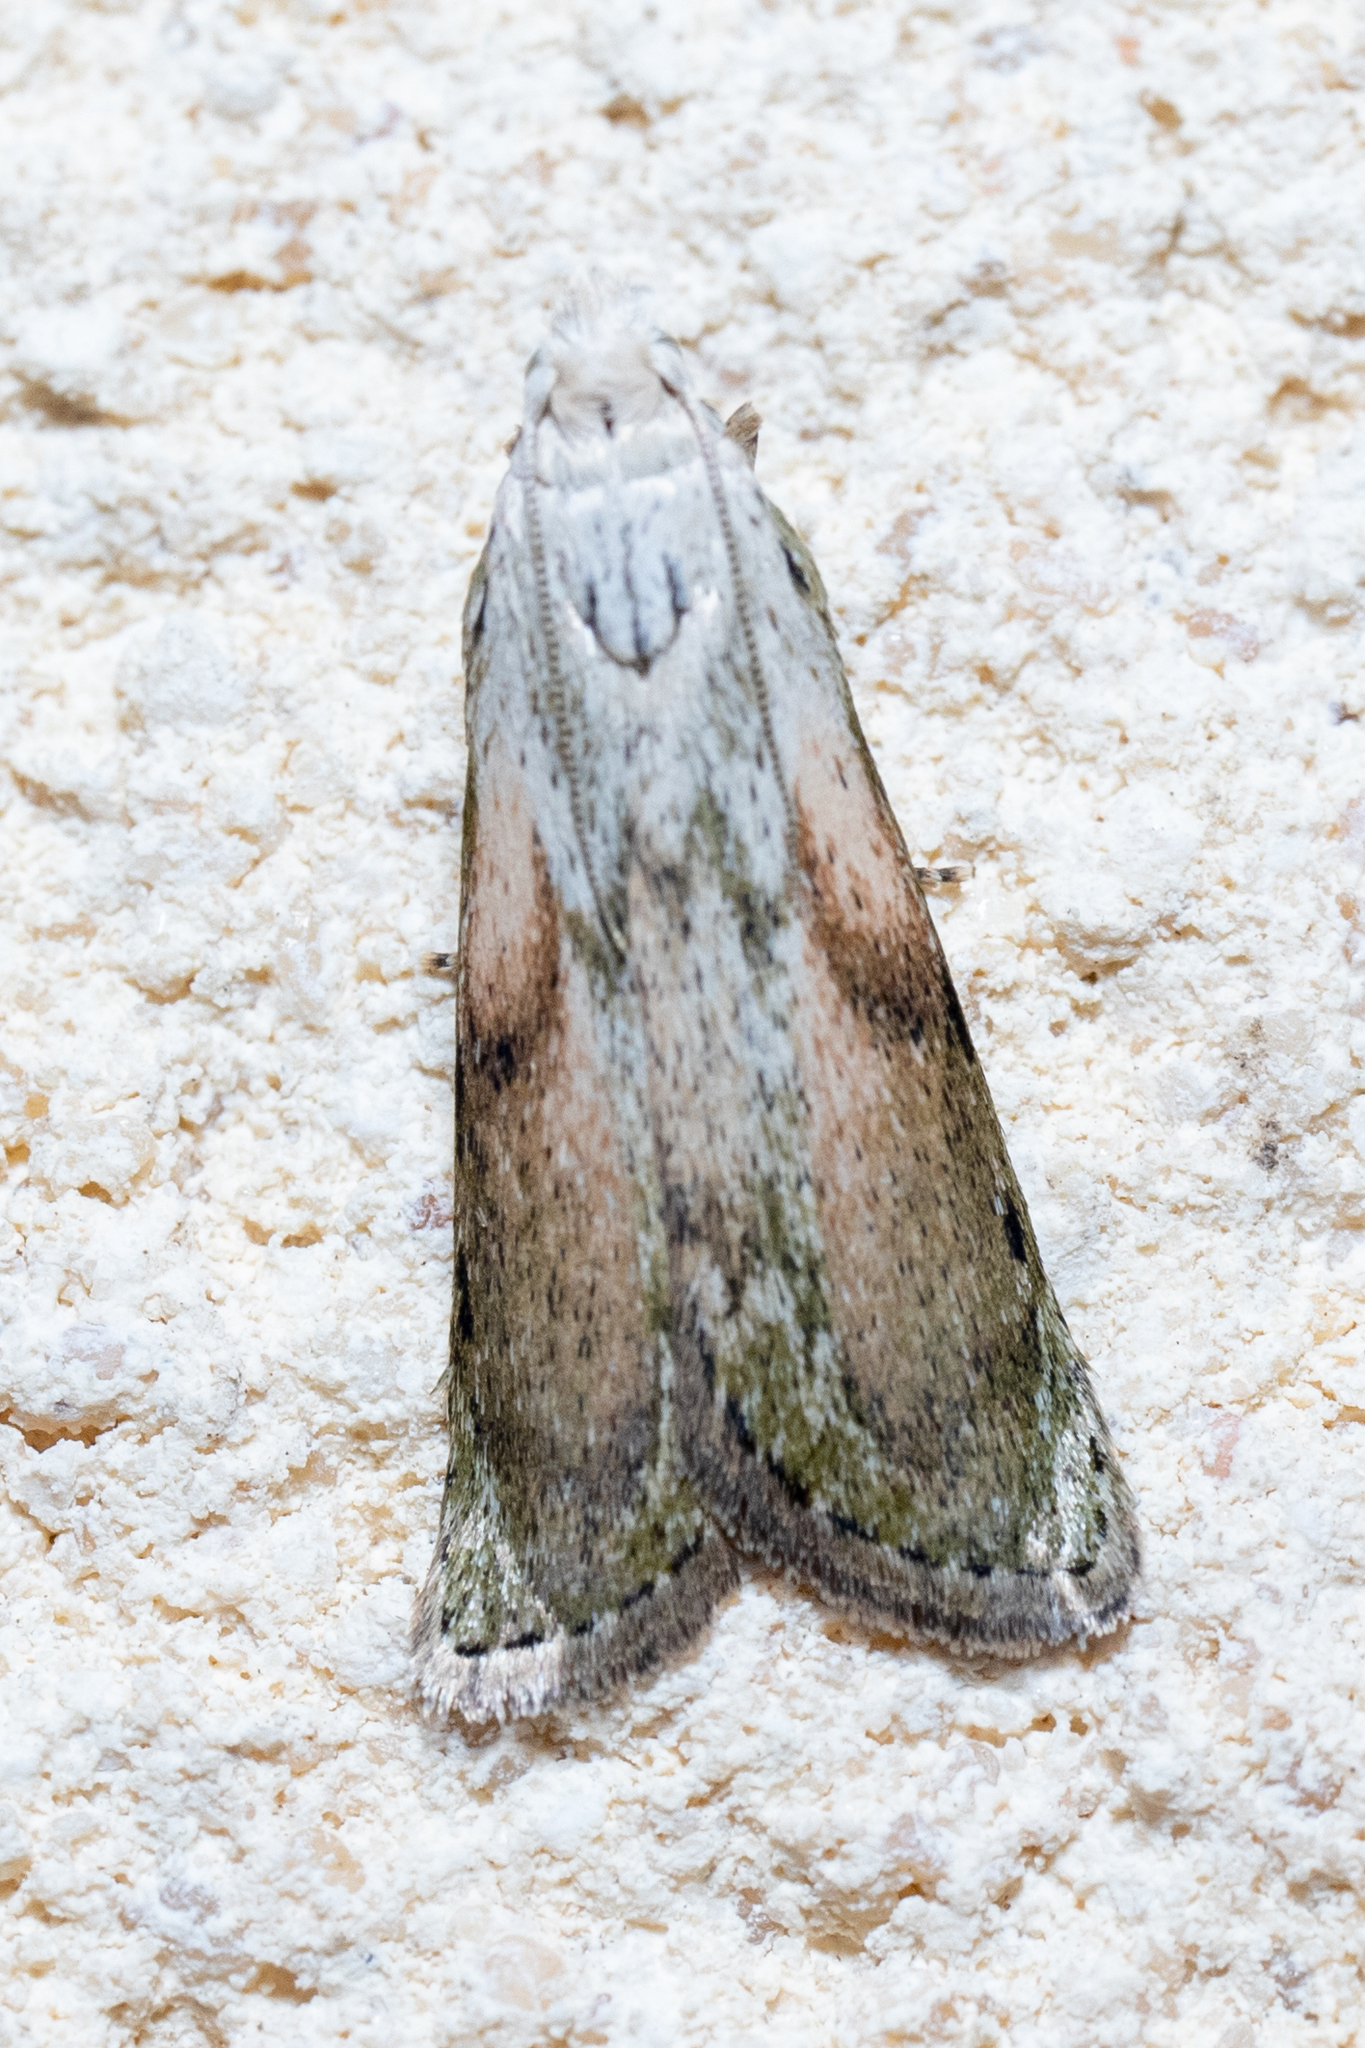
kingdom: Animalia
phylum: Arthropoda
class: Insecta
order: Lepidoptera
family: Pyralidae
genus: Aphomia
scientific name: Aphomia sociella
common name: Bee moth
